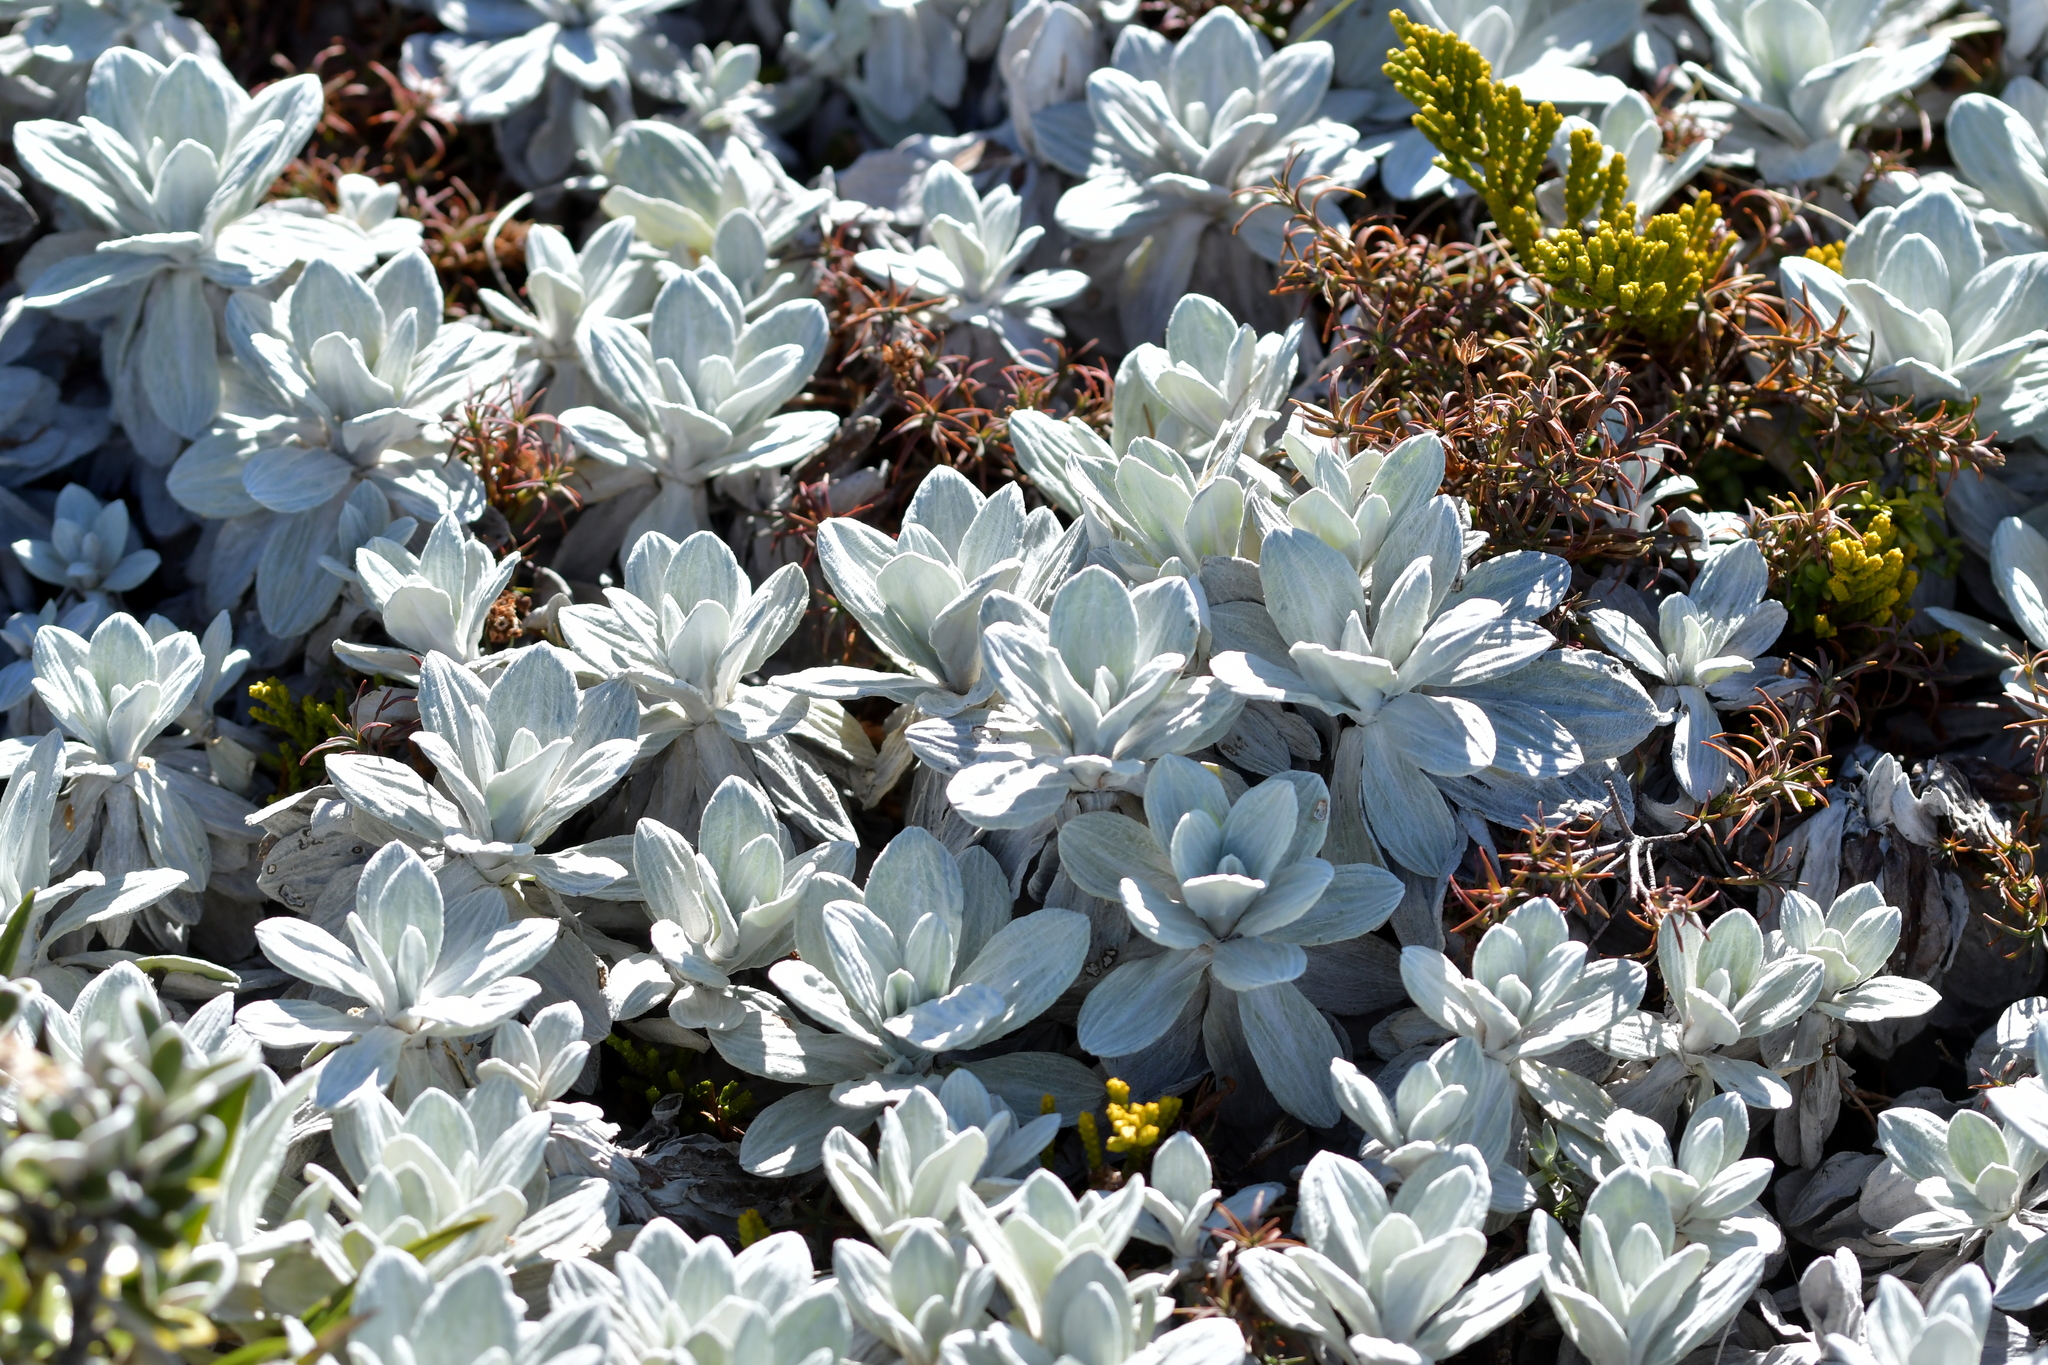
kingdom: Plantae
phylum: Tracheophyta
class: Magnoliopsida
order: Asterales
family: Asteraceae
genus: Celmisia
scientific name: Celmisia incana
